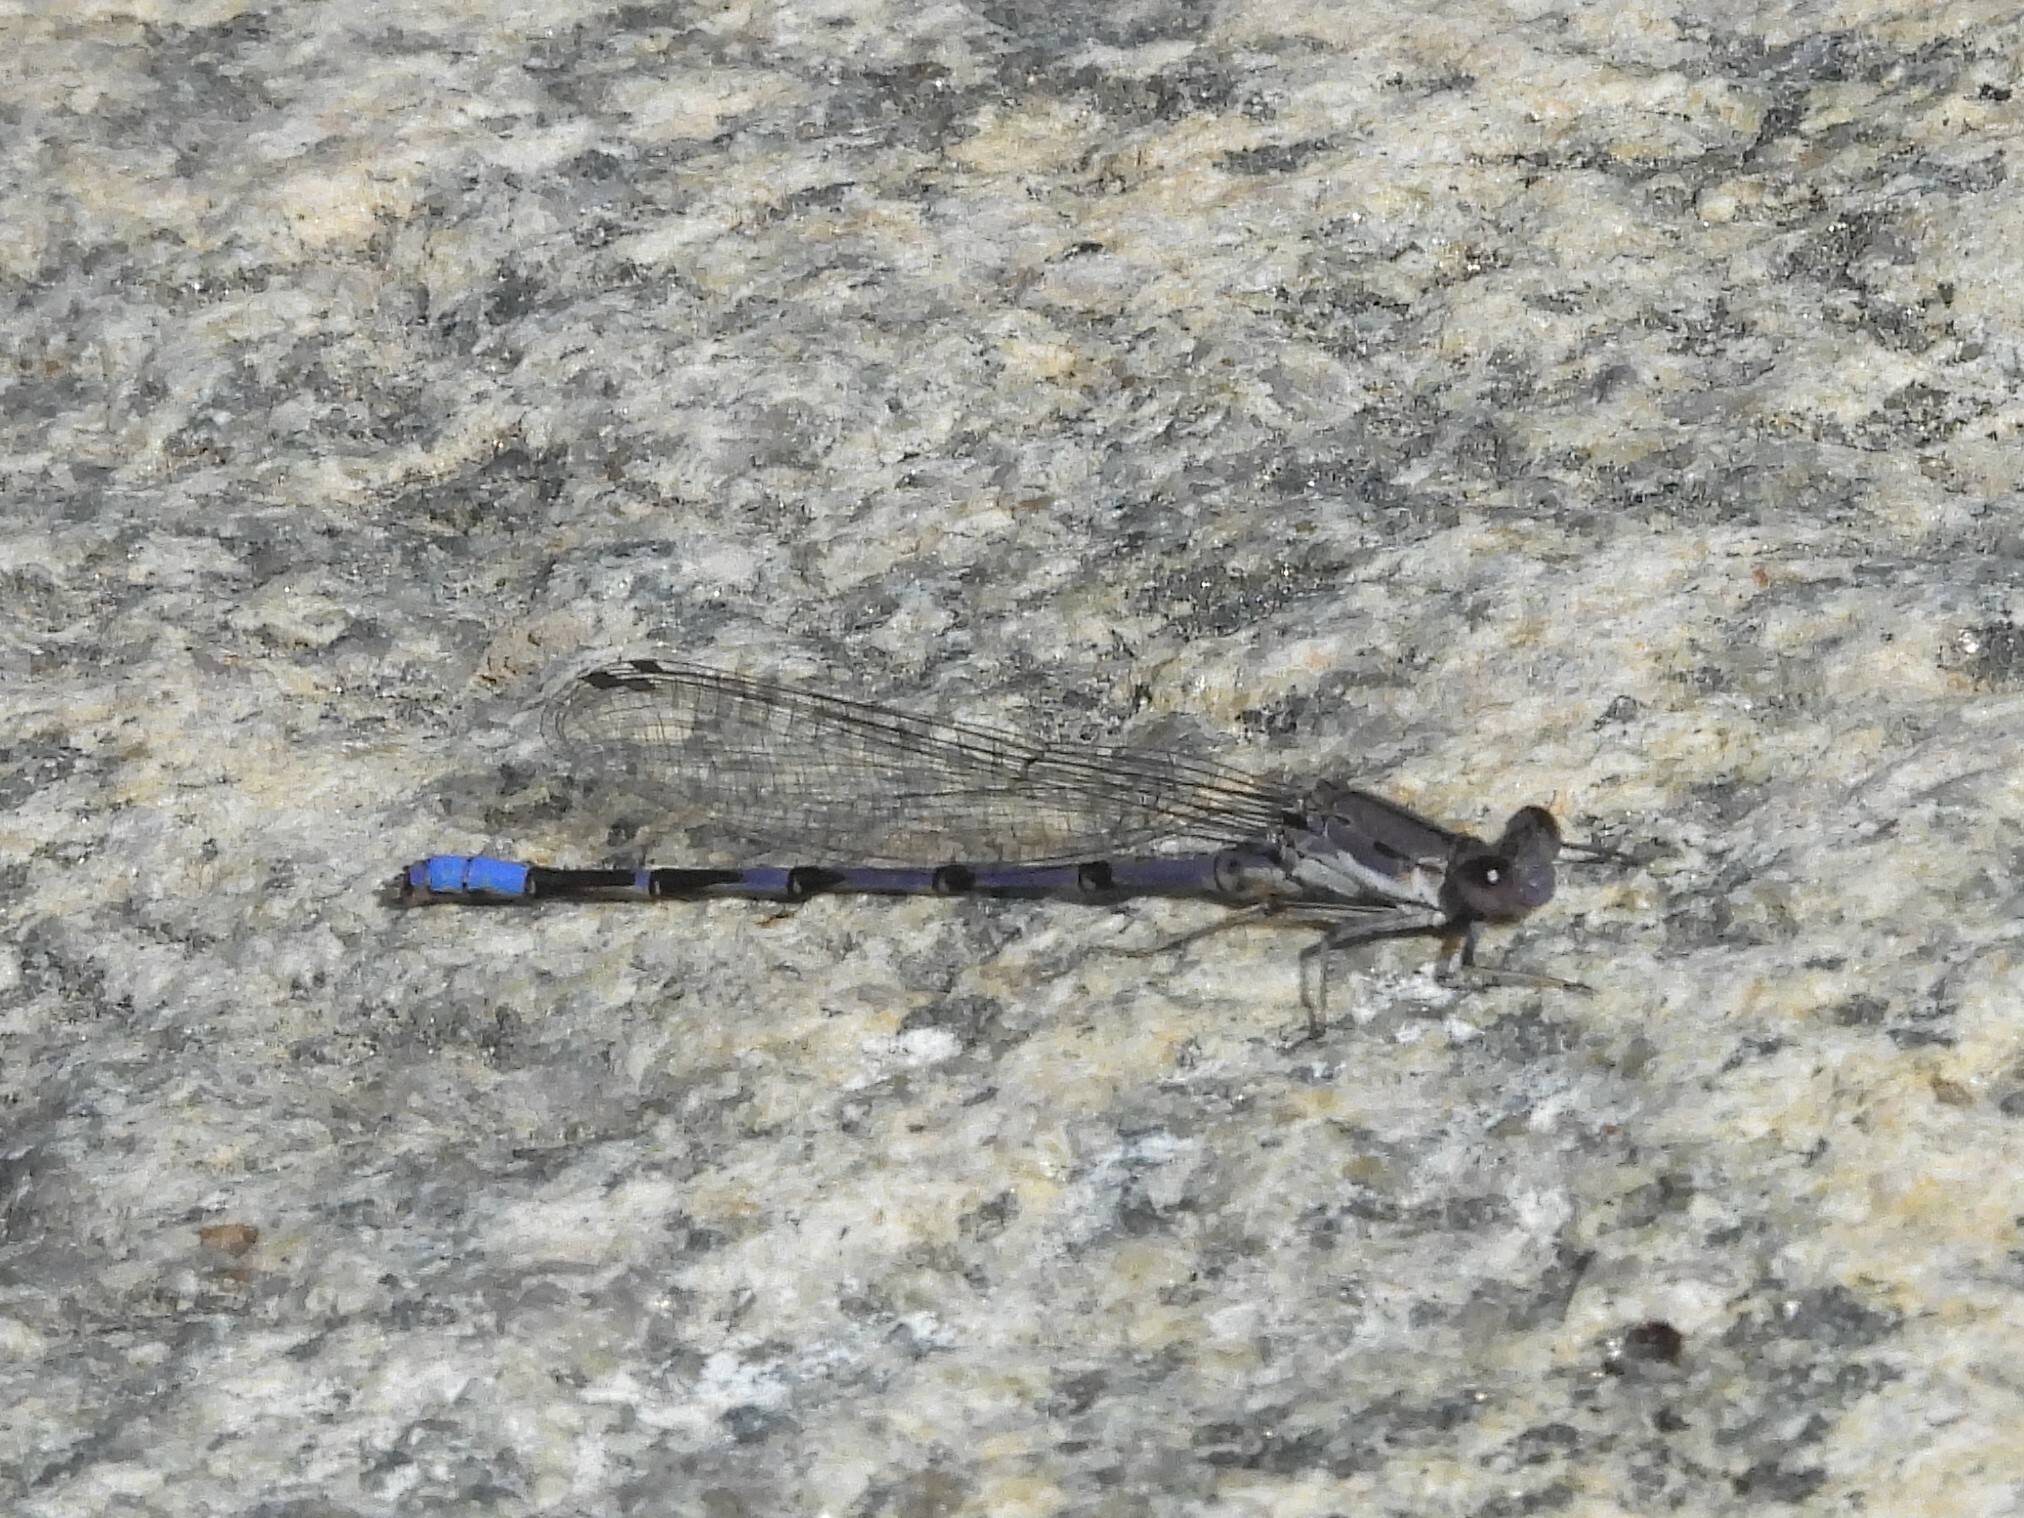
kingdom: Animalia
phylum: Arthropoda
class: Insecta
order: Odonata
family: Coenagrionidae
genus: Argia
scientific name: Argia emma
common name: Emma's dancer
